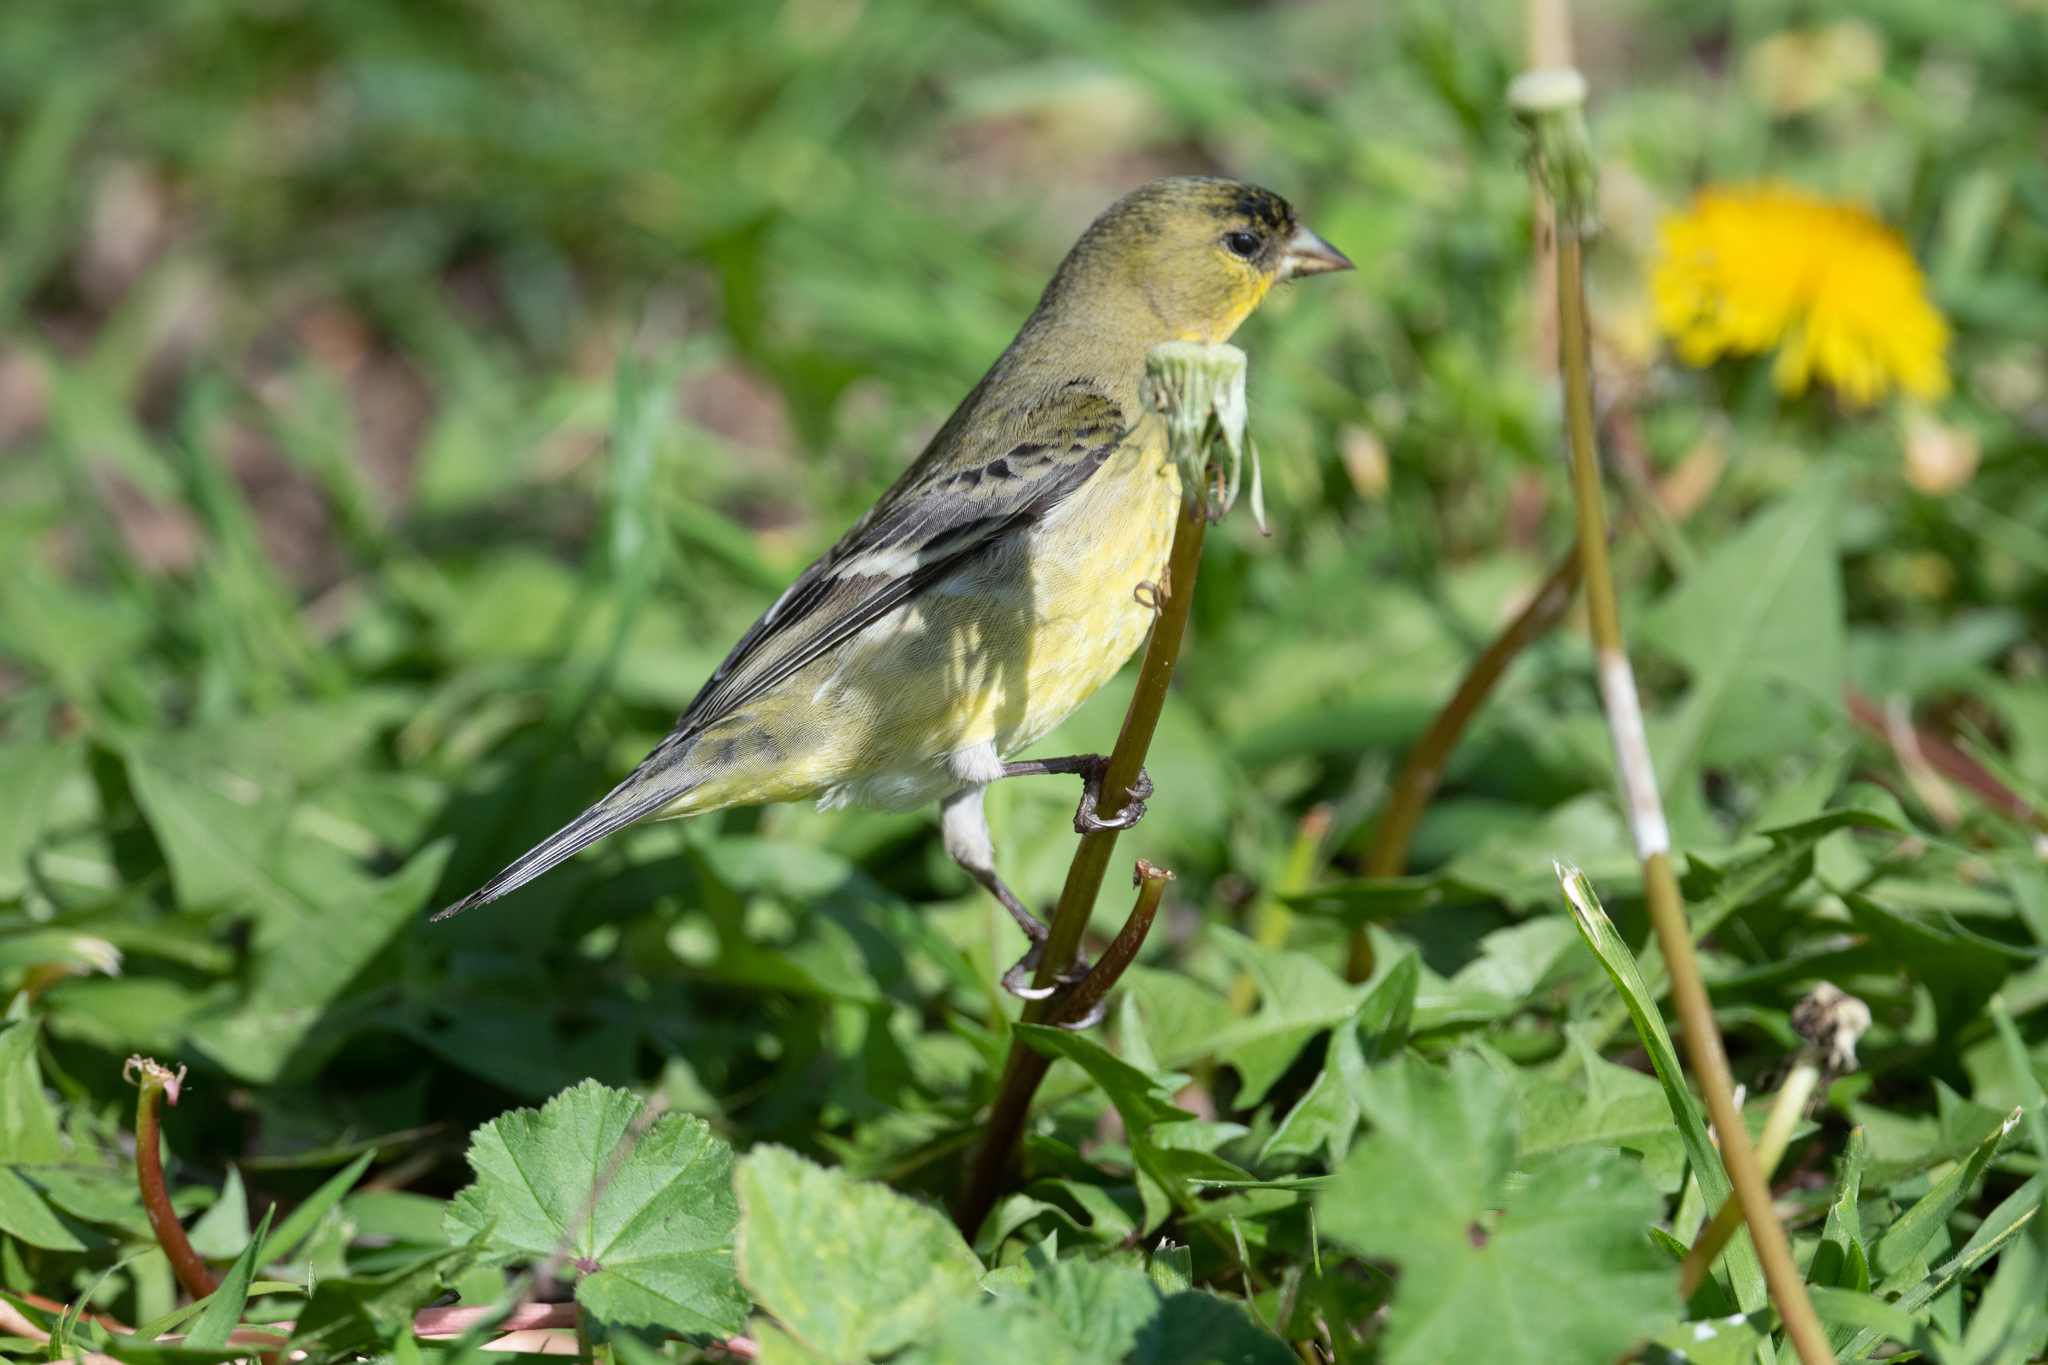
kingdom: Animalia
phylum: Chordata
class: Aves
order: Passeriformes
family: Fringillidae
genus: Spinus
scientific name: Spinus psaltria
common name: Lesser goldfinch
